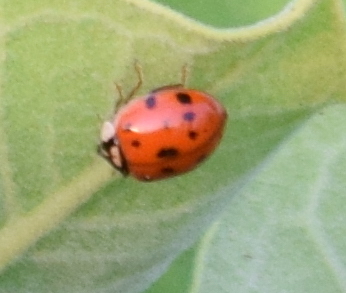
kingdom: Animalia
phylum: Arthropoda
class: Insecta
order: Coleoptera
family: Coccinellidae
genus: Harmonia
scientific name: Harmonia axyridis
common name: Harlequin ladybird
